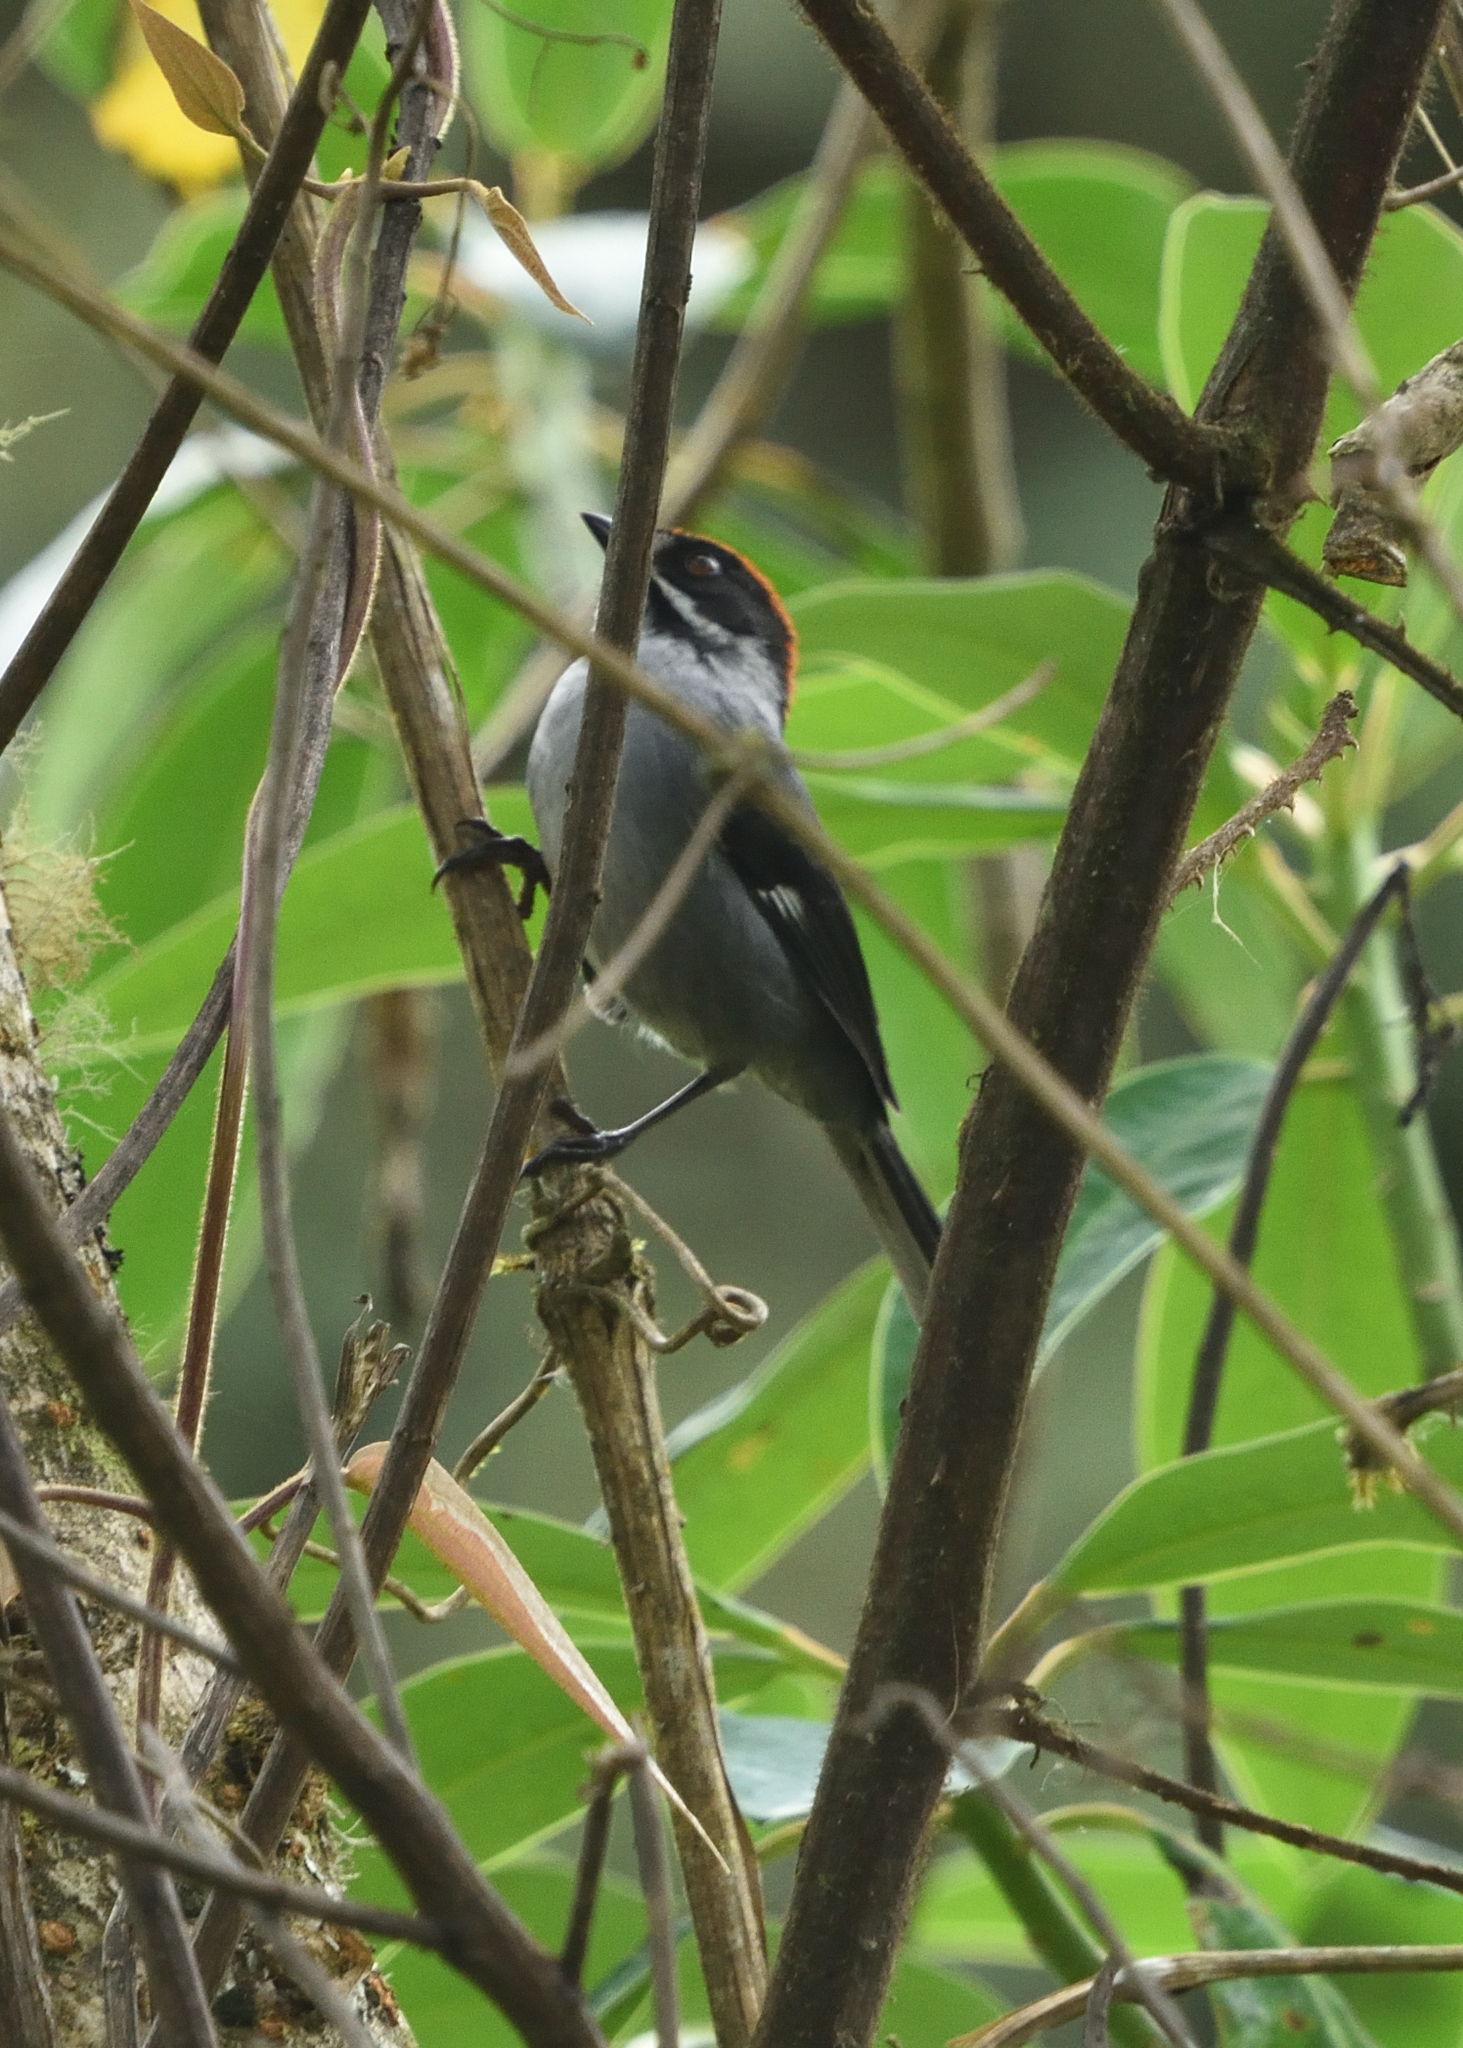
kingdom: Animalia
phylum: Chordata
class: Aves
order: Passeriformes
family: Passerellidae
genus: Atlapetes
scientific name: Atlapetes schistaceus
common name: Slaty brushfinch
